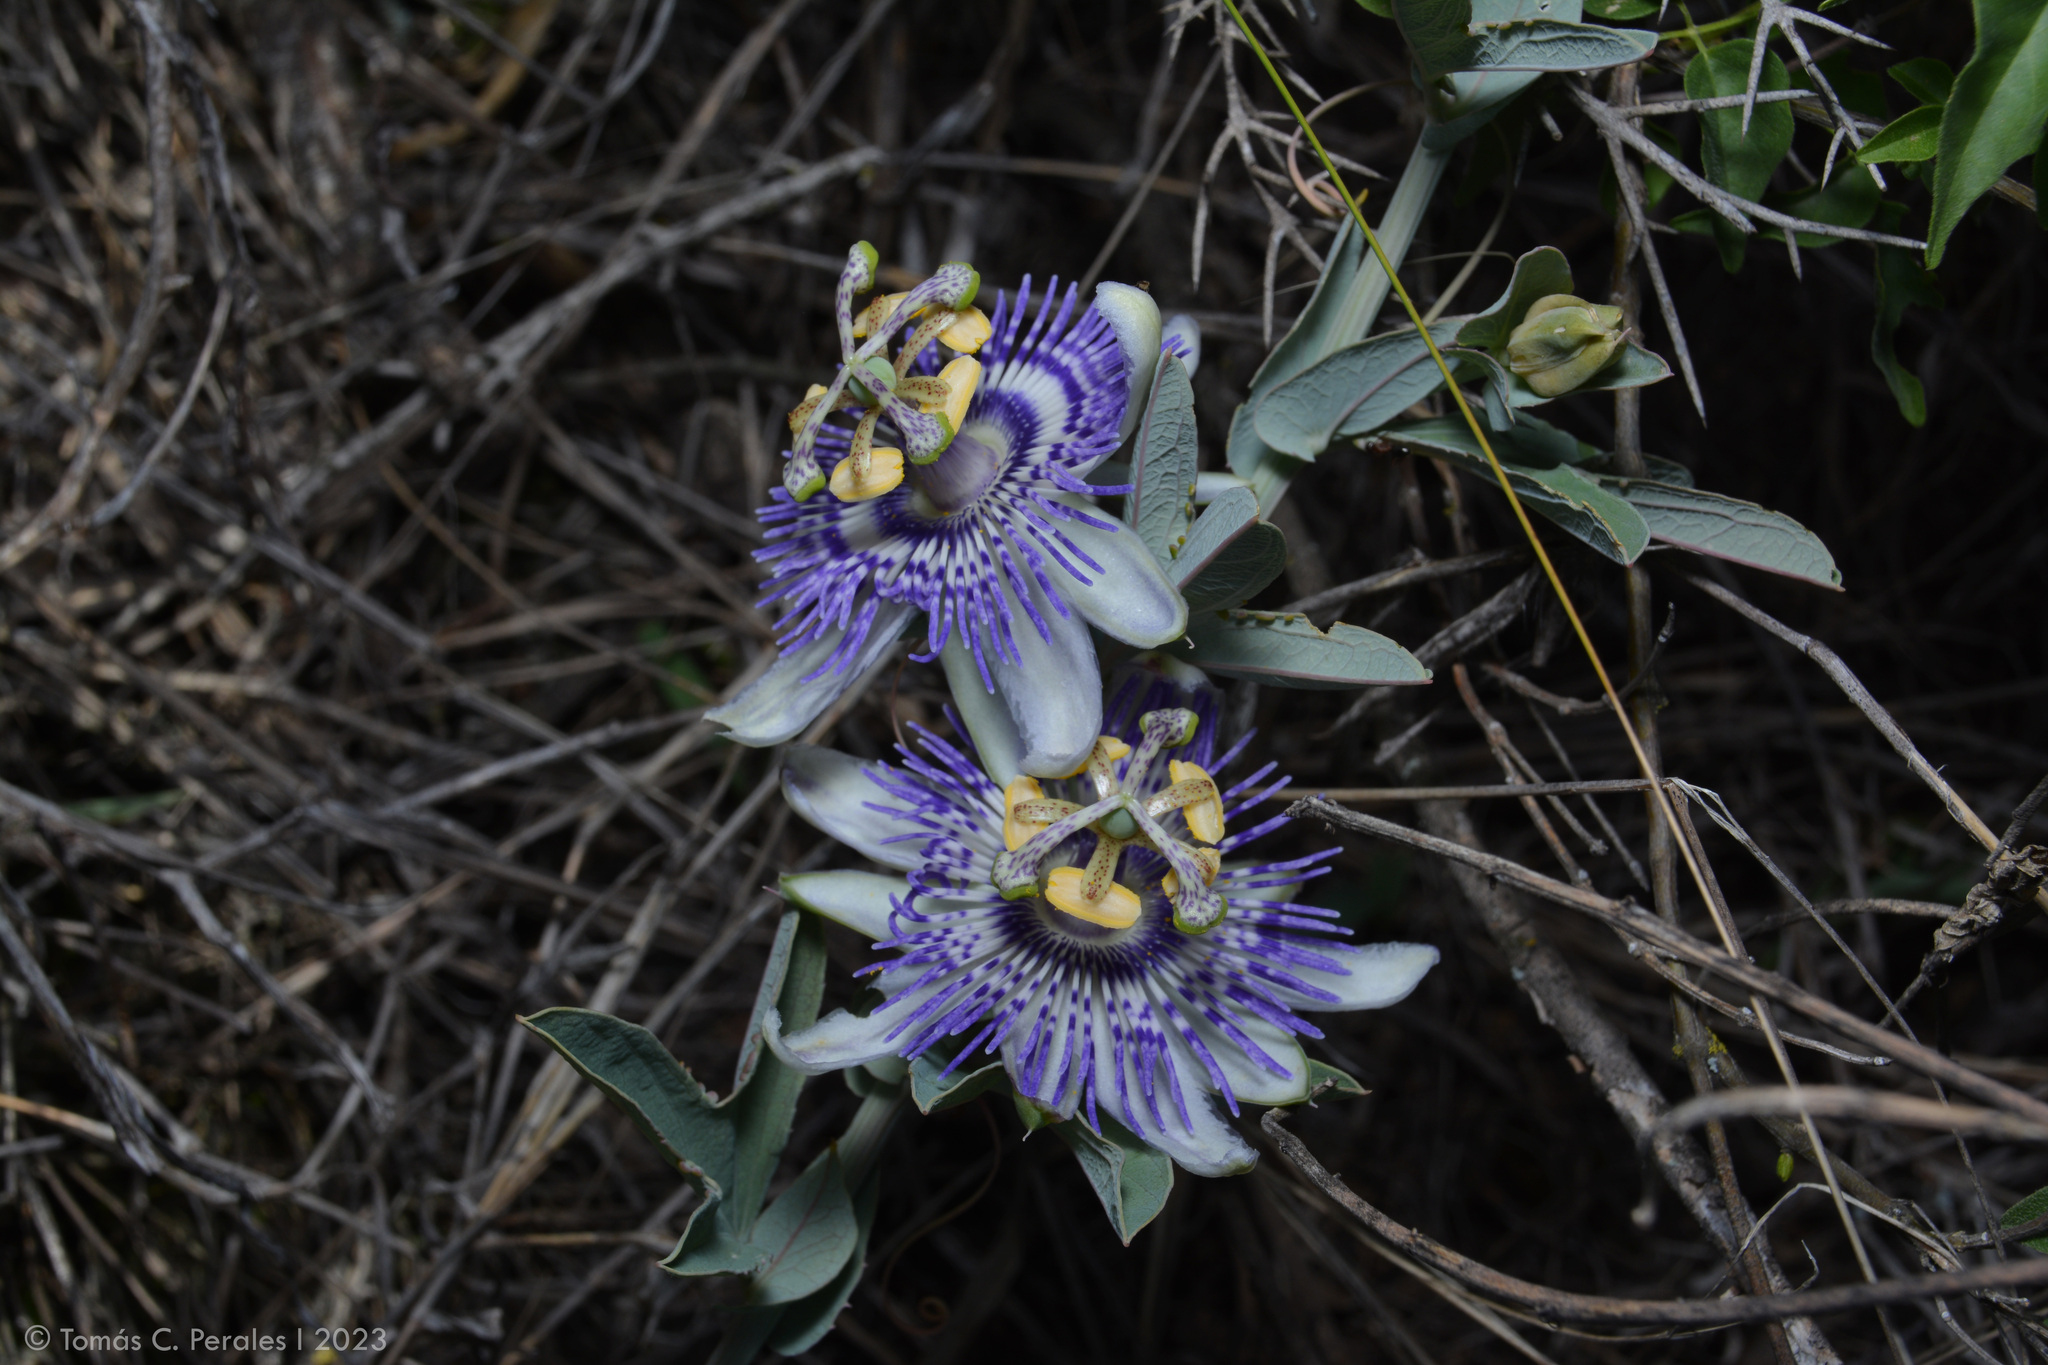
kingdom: Plantae
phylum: Tracheophyta
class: Magnoliopsida
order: Malpighiales
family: Passifloraceae
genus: Passiflora
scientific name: Passiflora mooreana
